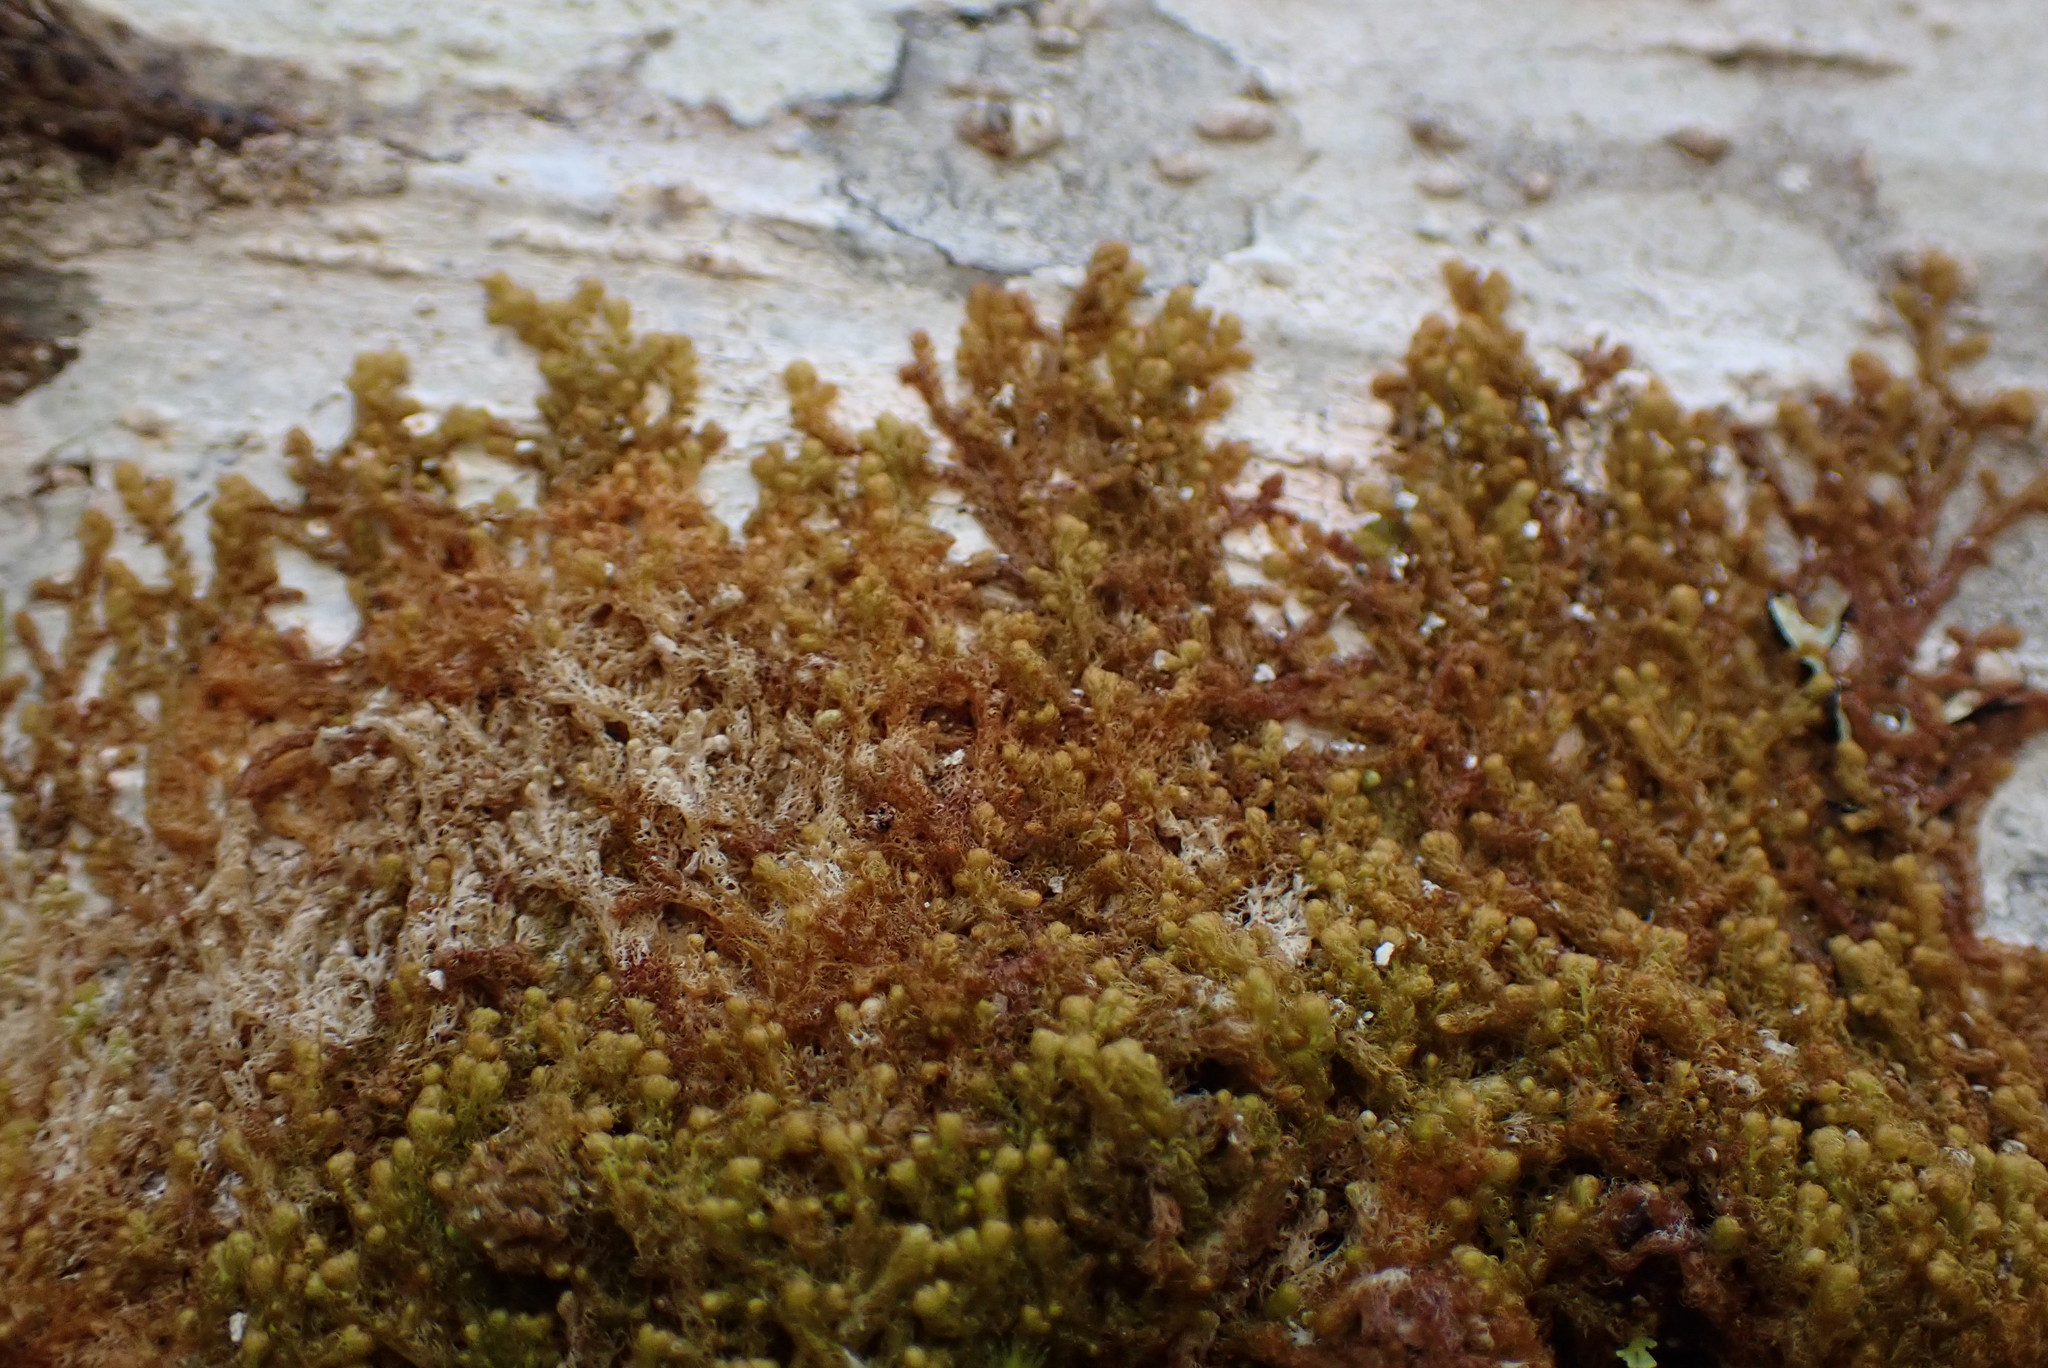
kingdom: Plantae
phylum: Marchantiophyta
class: Jungermanniopsida
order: Ptilidiales
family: Ptilidiaceae
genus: Ptilidium
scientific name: Ptilidium californicum
